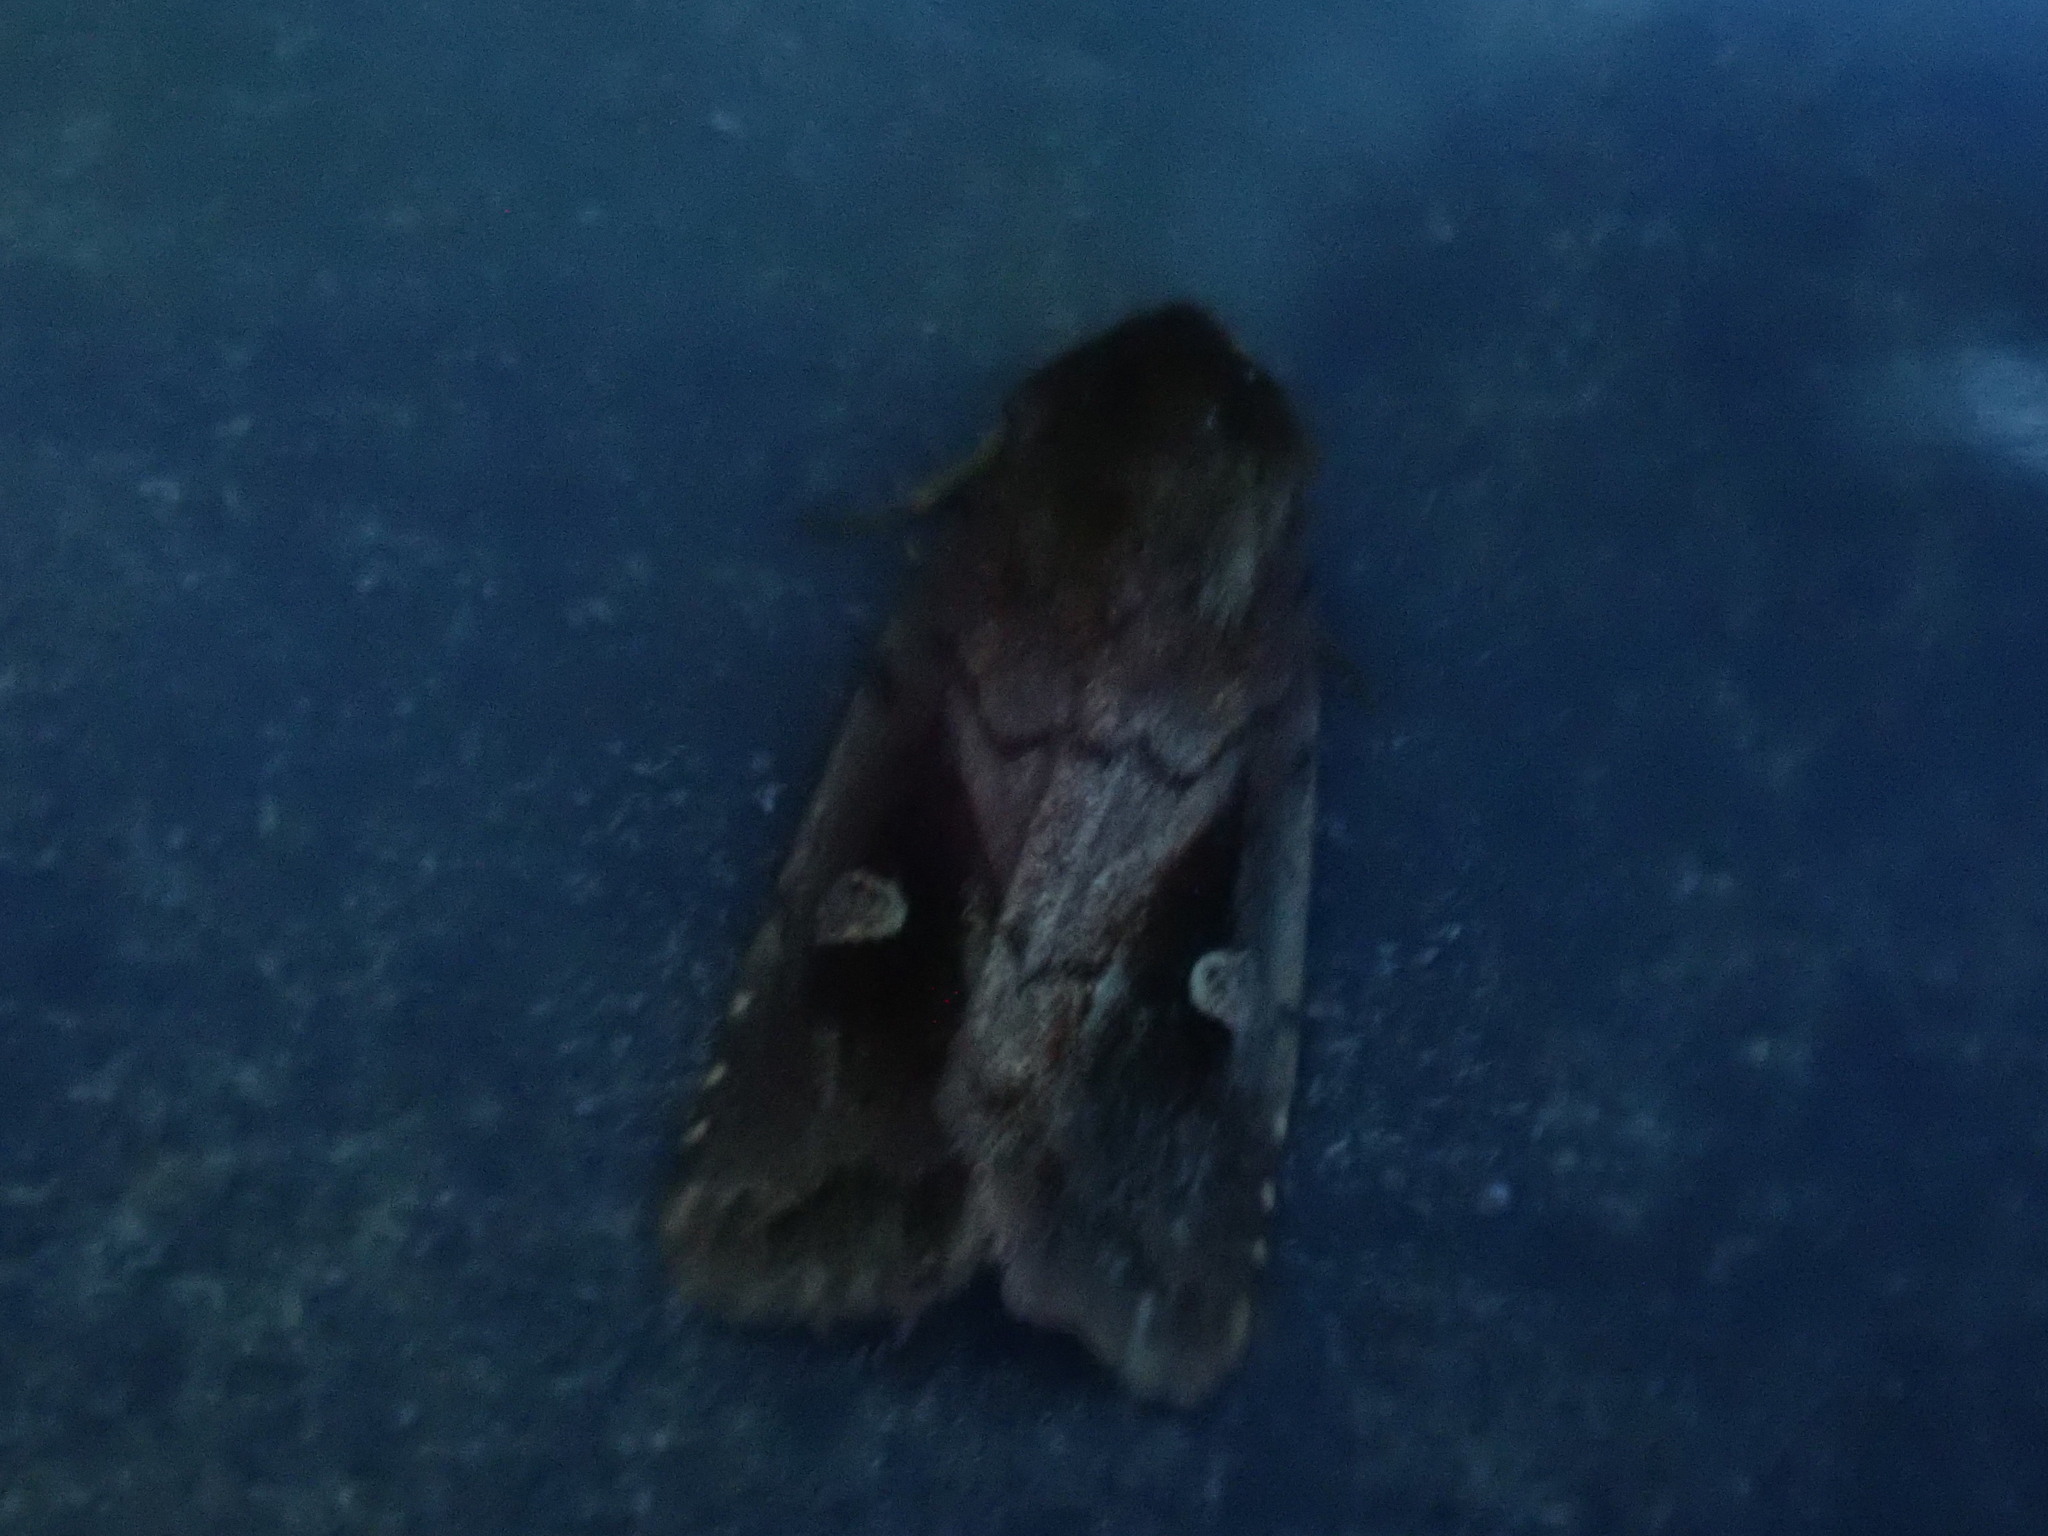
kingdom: Animalia
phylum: Arthropoda
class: Insecta
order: Lepidoptera
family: Noctuidae
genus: Iodopepla
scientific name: Iodopepla ualbum
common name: White-eyed borer moth
